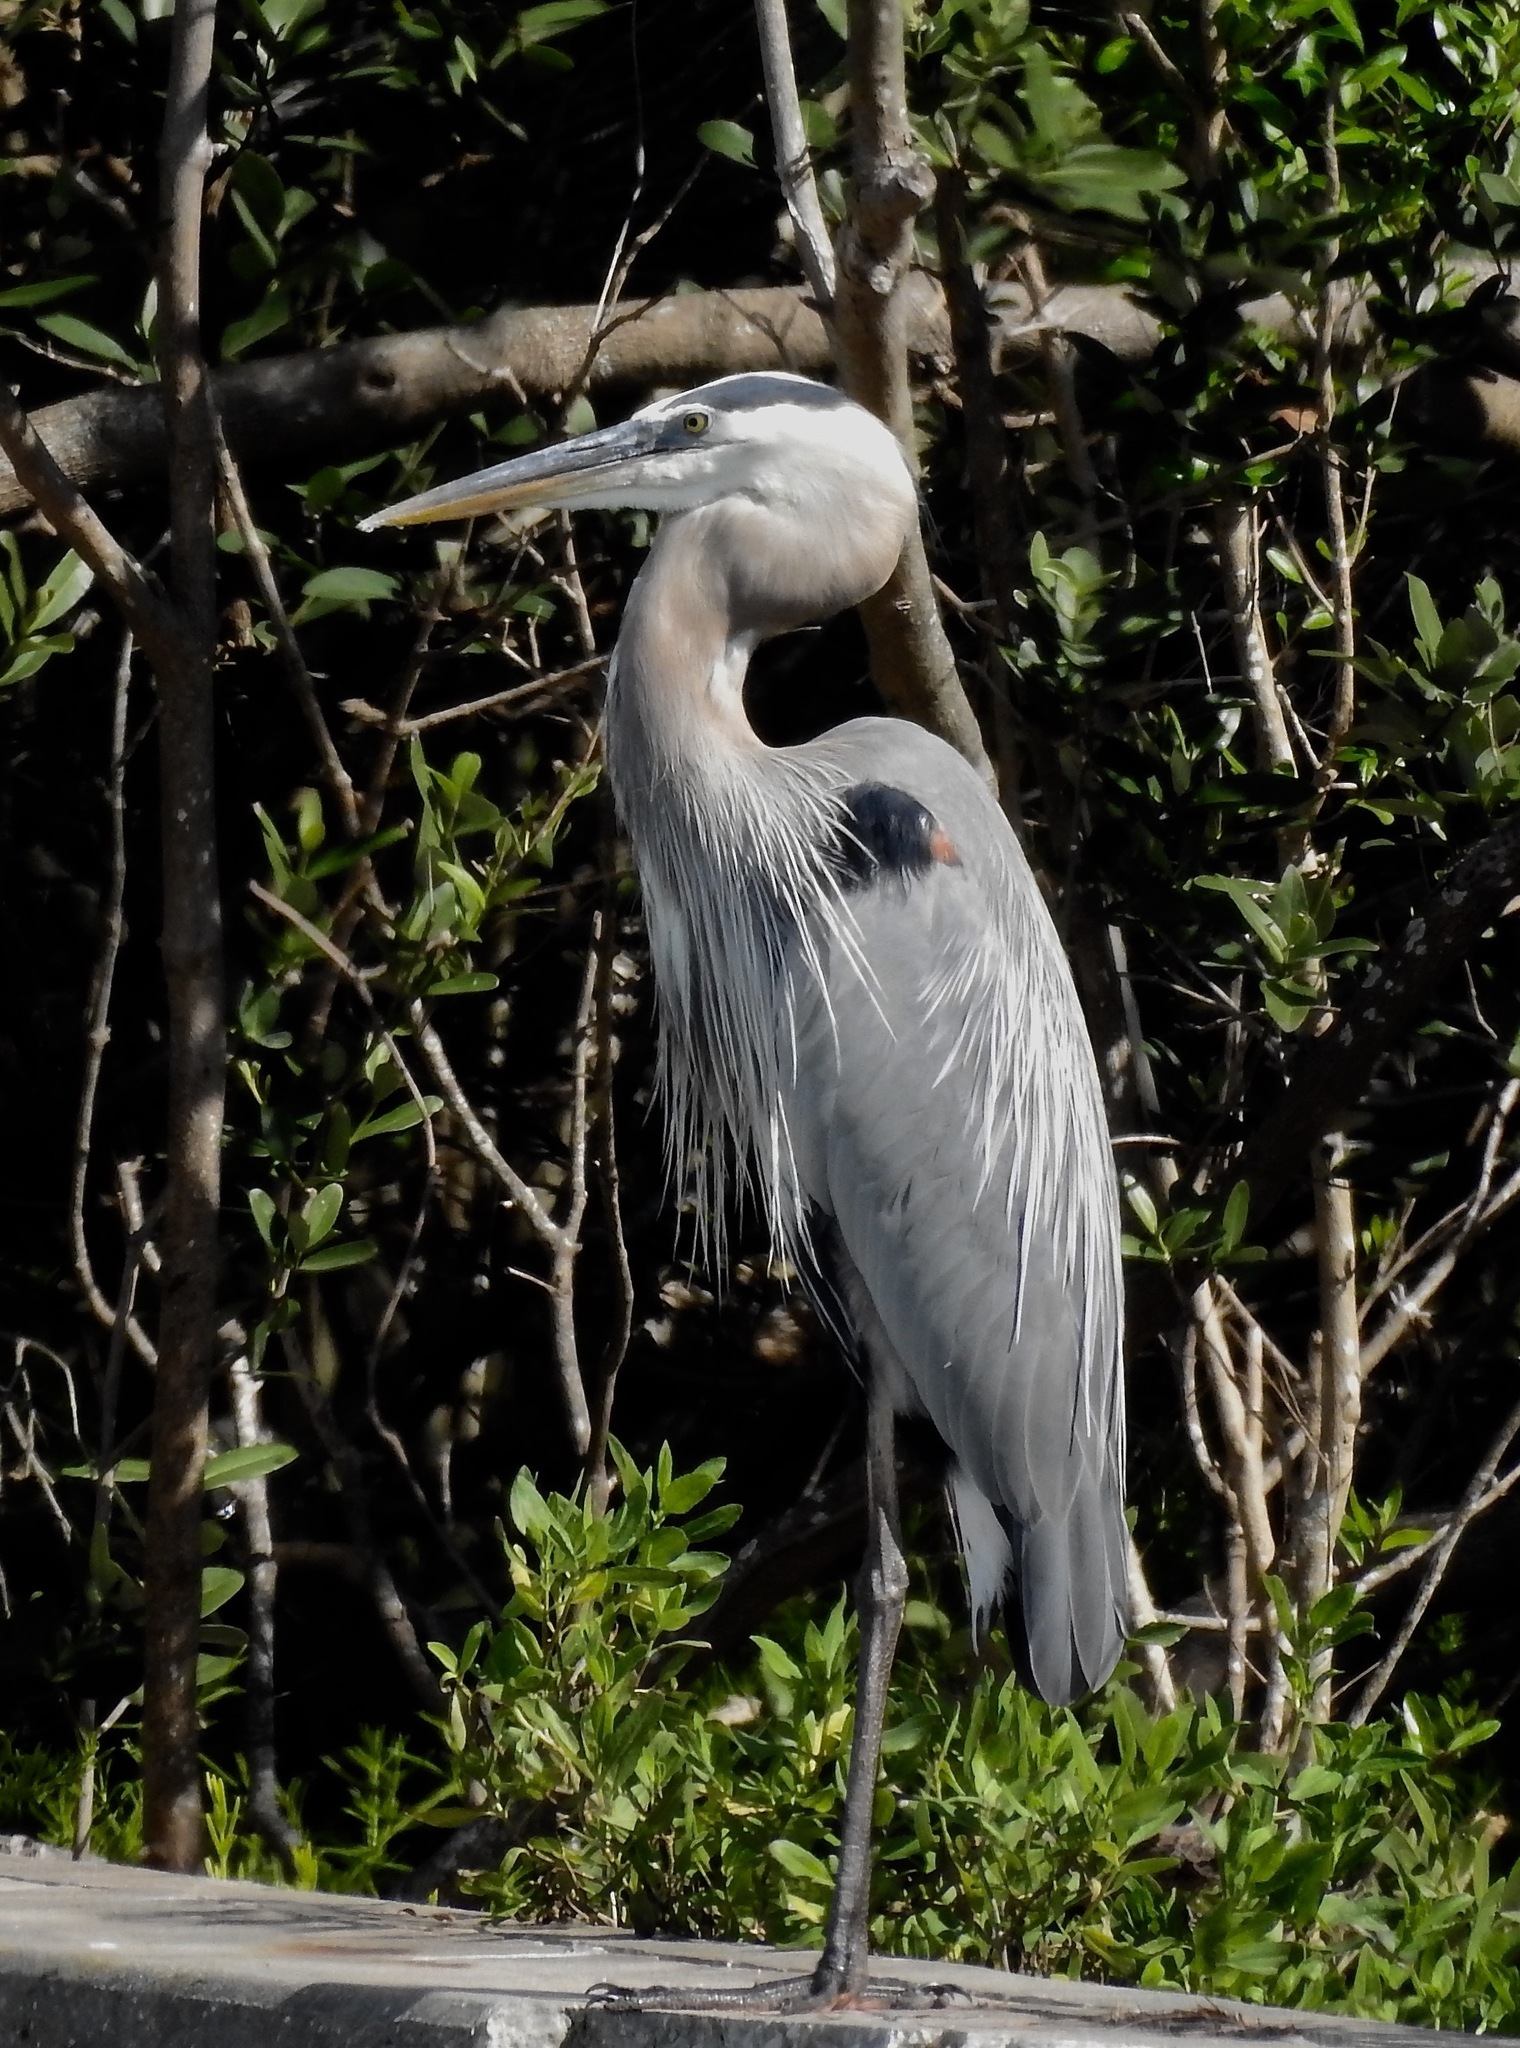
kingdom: Animalia
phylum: Chordata
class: Aves
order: Pelecaniformes
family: Ardeidae
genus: Ardea
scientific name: Ardea herodias
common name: Great blue heron
